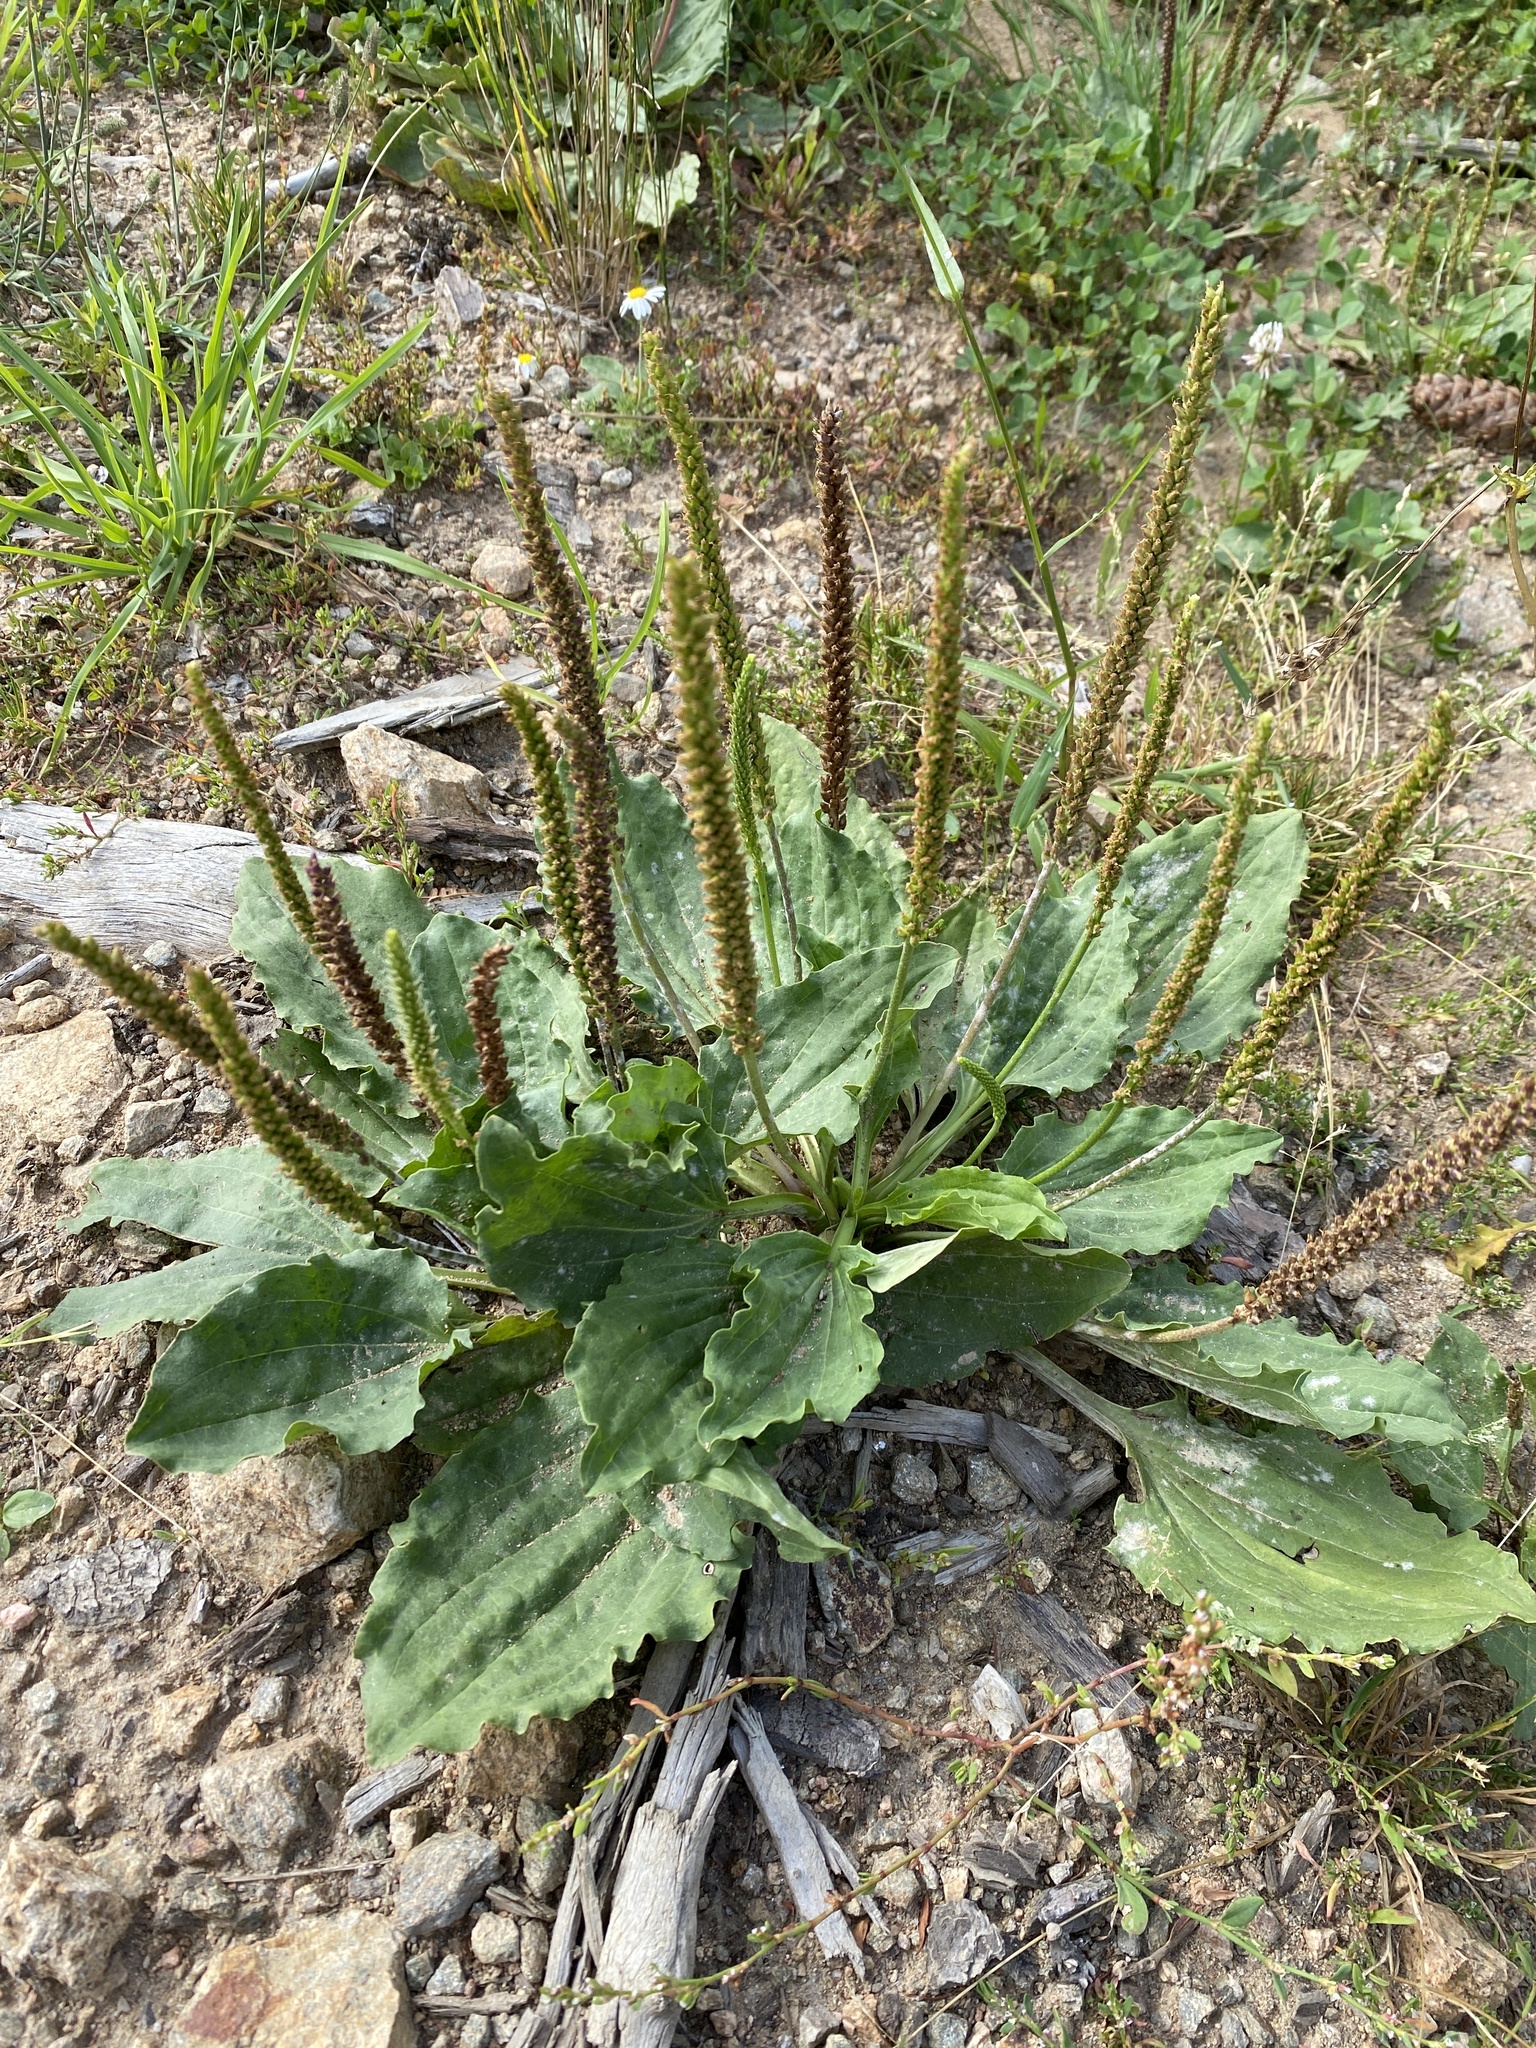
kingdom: Plantae
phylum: Tracheophyta
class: Magnoliopsida
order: Lamiales
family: Plantaginaceae
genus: Plantago
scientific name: Plantago major
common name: Common plantain
